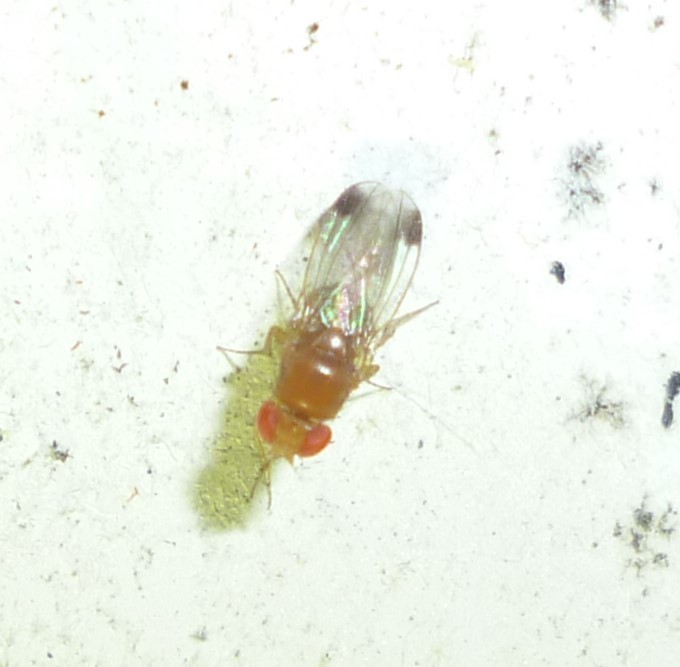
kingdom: Animalia
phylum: Arthropoda
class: Insecta
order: Diptera
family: Drosophilidae
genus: Drosophila
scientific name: Drosophila suzukii
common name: Spotted-wing drosophila
